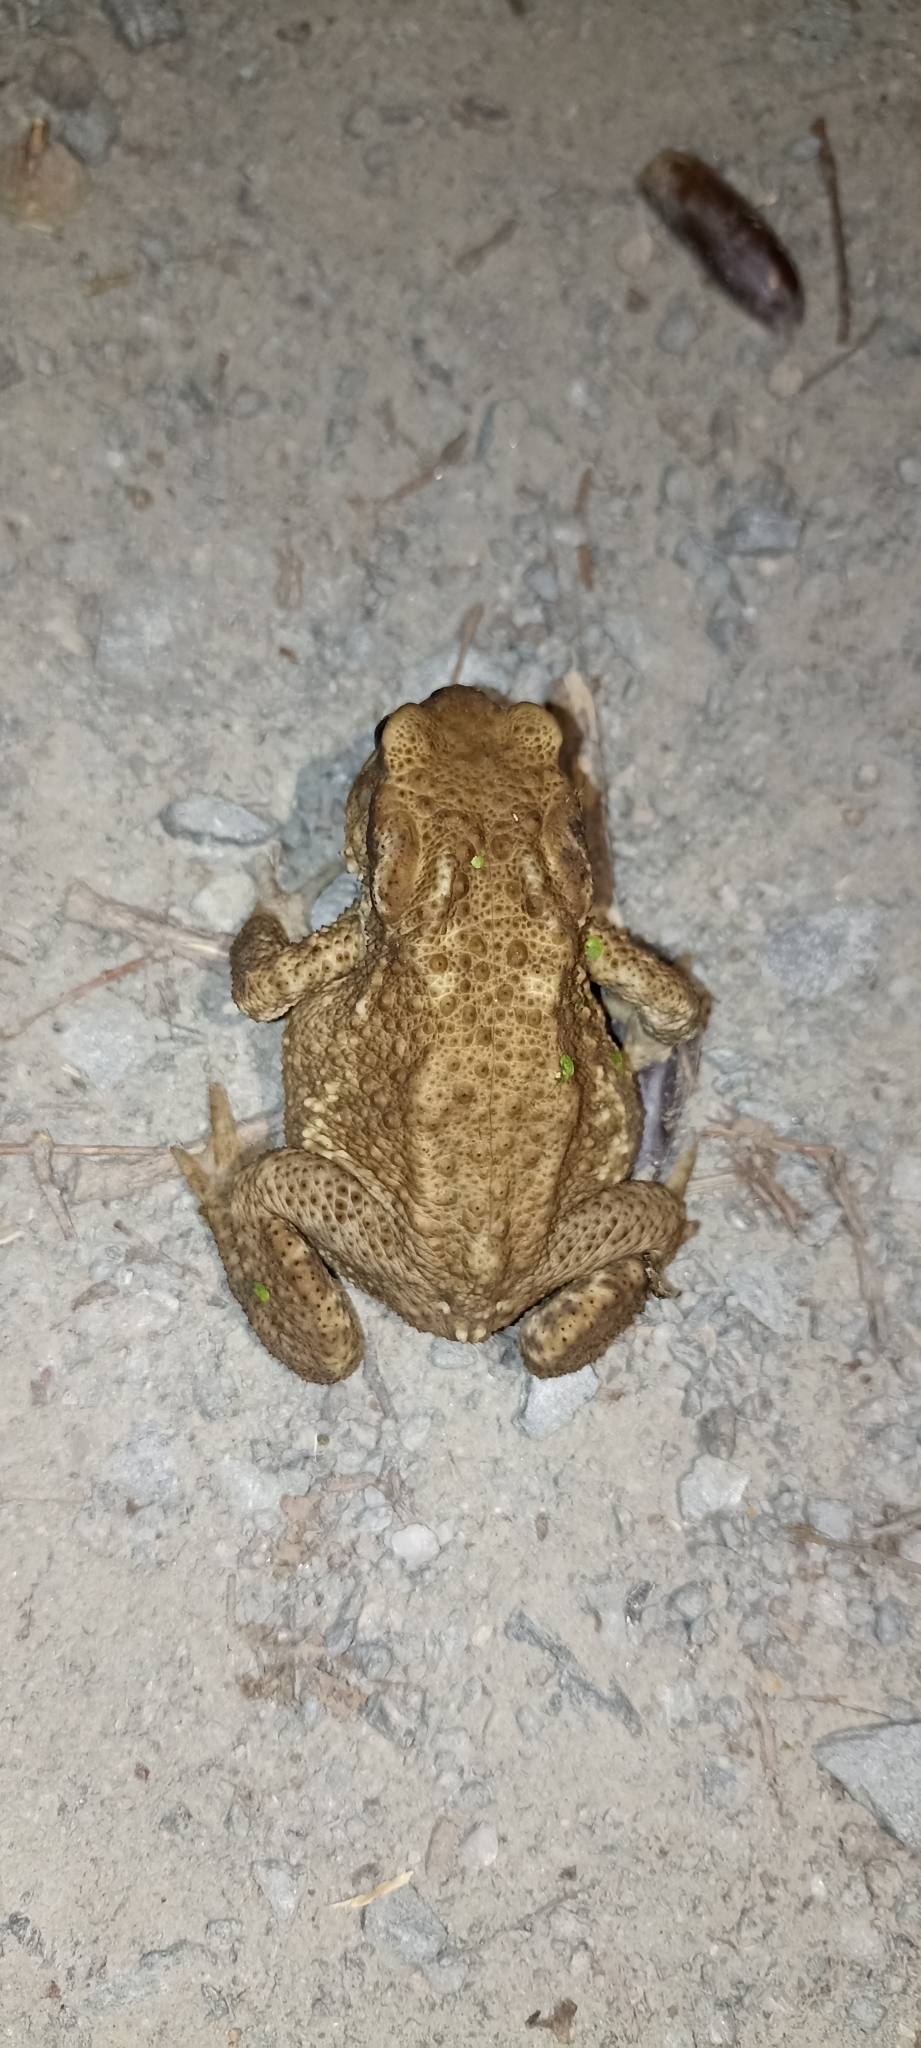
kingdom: Animalia
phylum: Chordata
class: Amphibia
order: Anura
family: Bufonidae
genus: Bufo
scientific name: Bufo spinosus
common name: Western common toad
